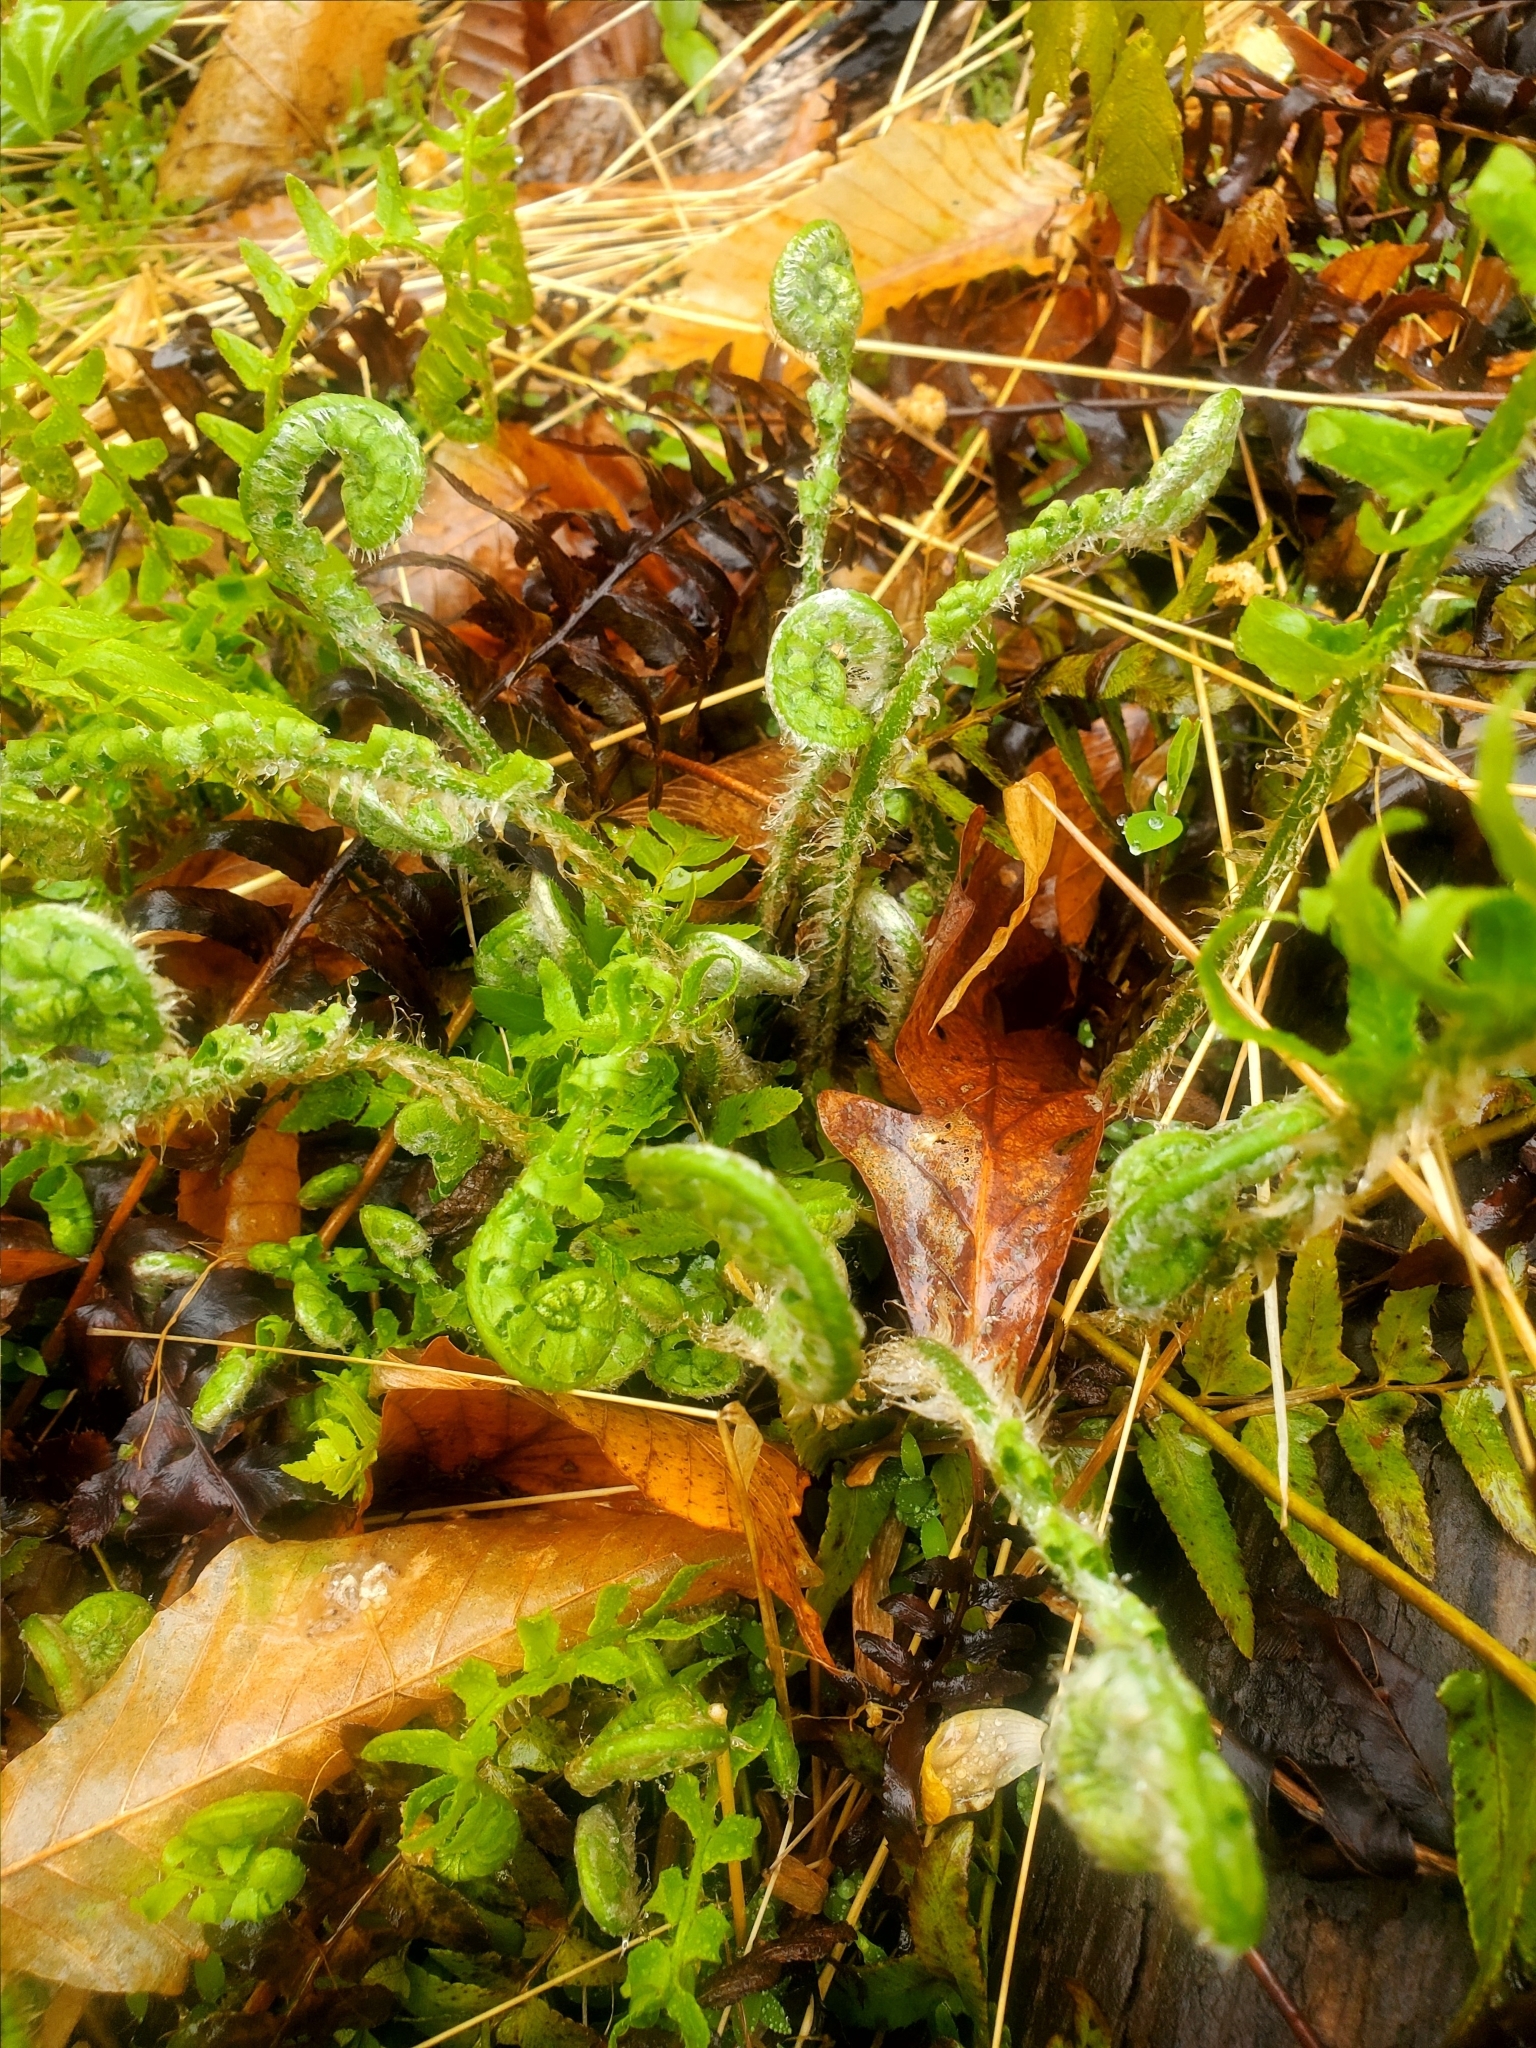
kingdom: Plantae
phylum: Tracheophyta
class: Polypodiopsida
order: Polypodiales
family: Dryopteridaceae
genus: Polystichum
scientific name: Polystichum acrostichoides
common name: Christmas fern
